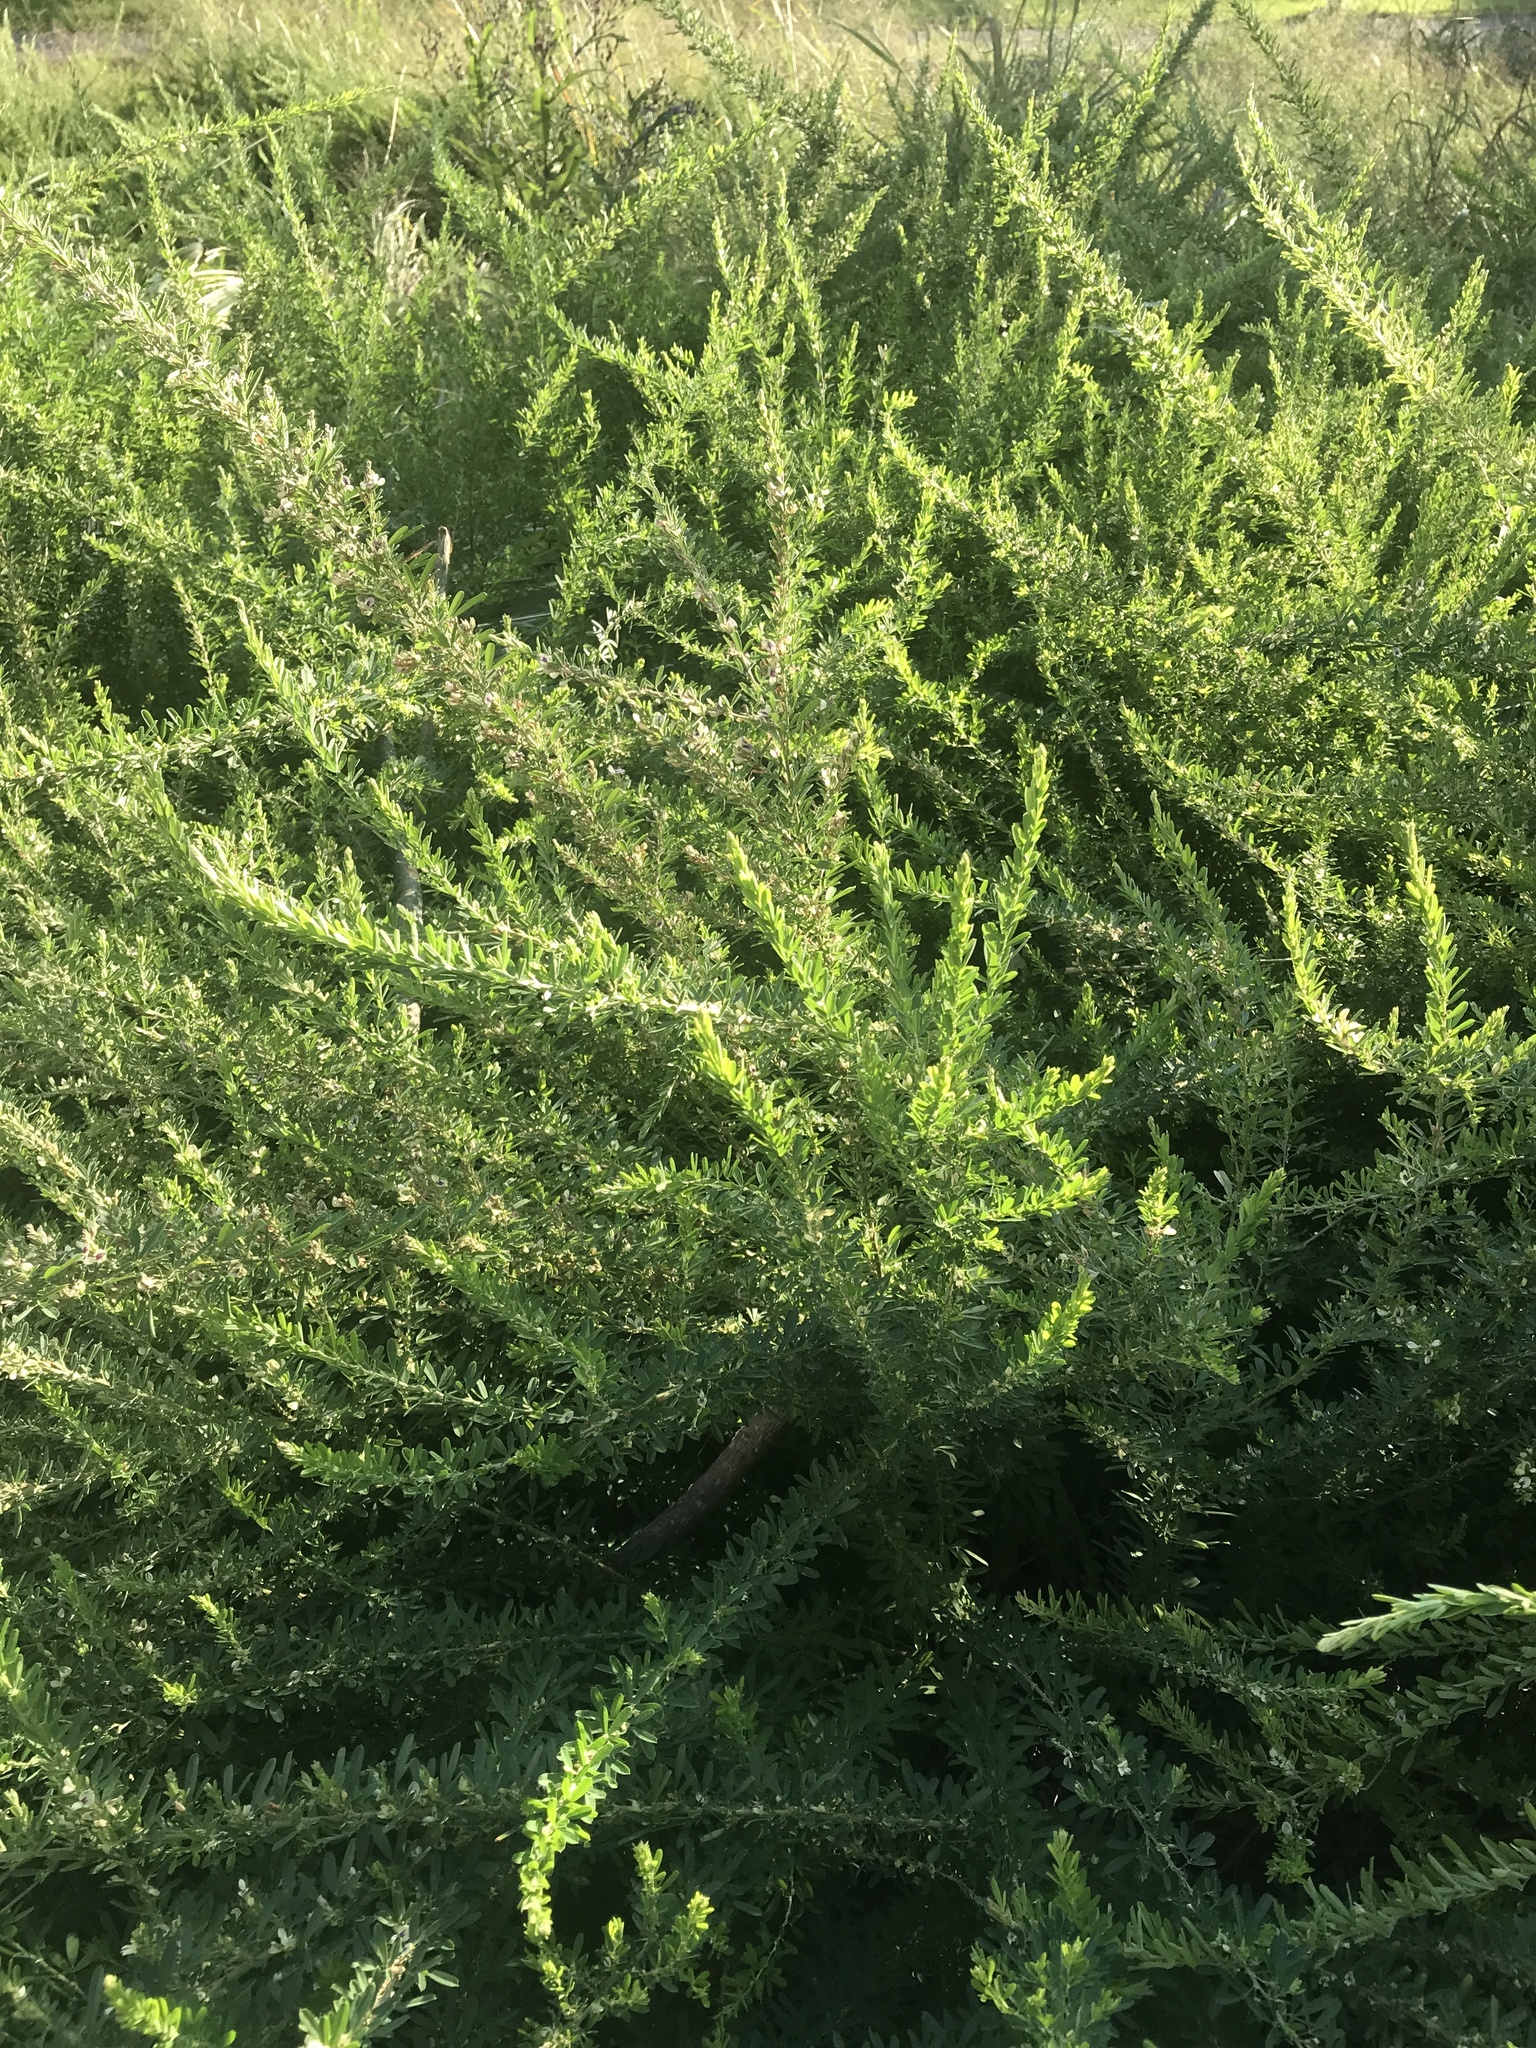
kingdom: Plantae
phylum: Tracheophyta
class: Magnoliopsida
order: Fabales
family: Fabaceae
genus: Lespedeza
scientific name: Lespedeza cuneata
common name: Chinese bush-clover
